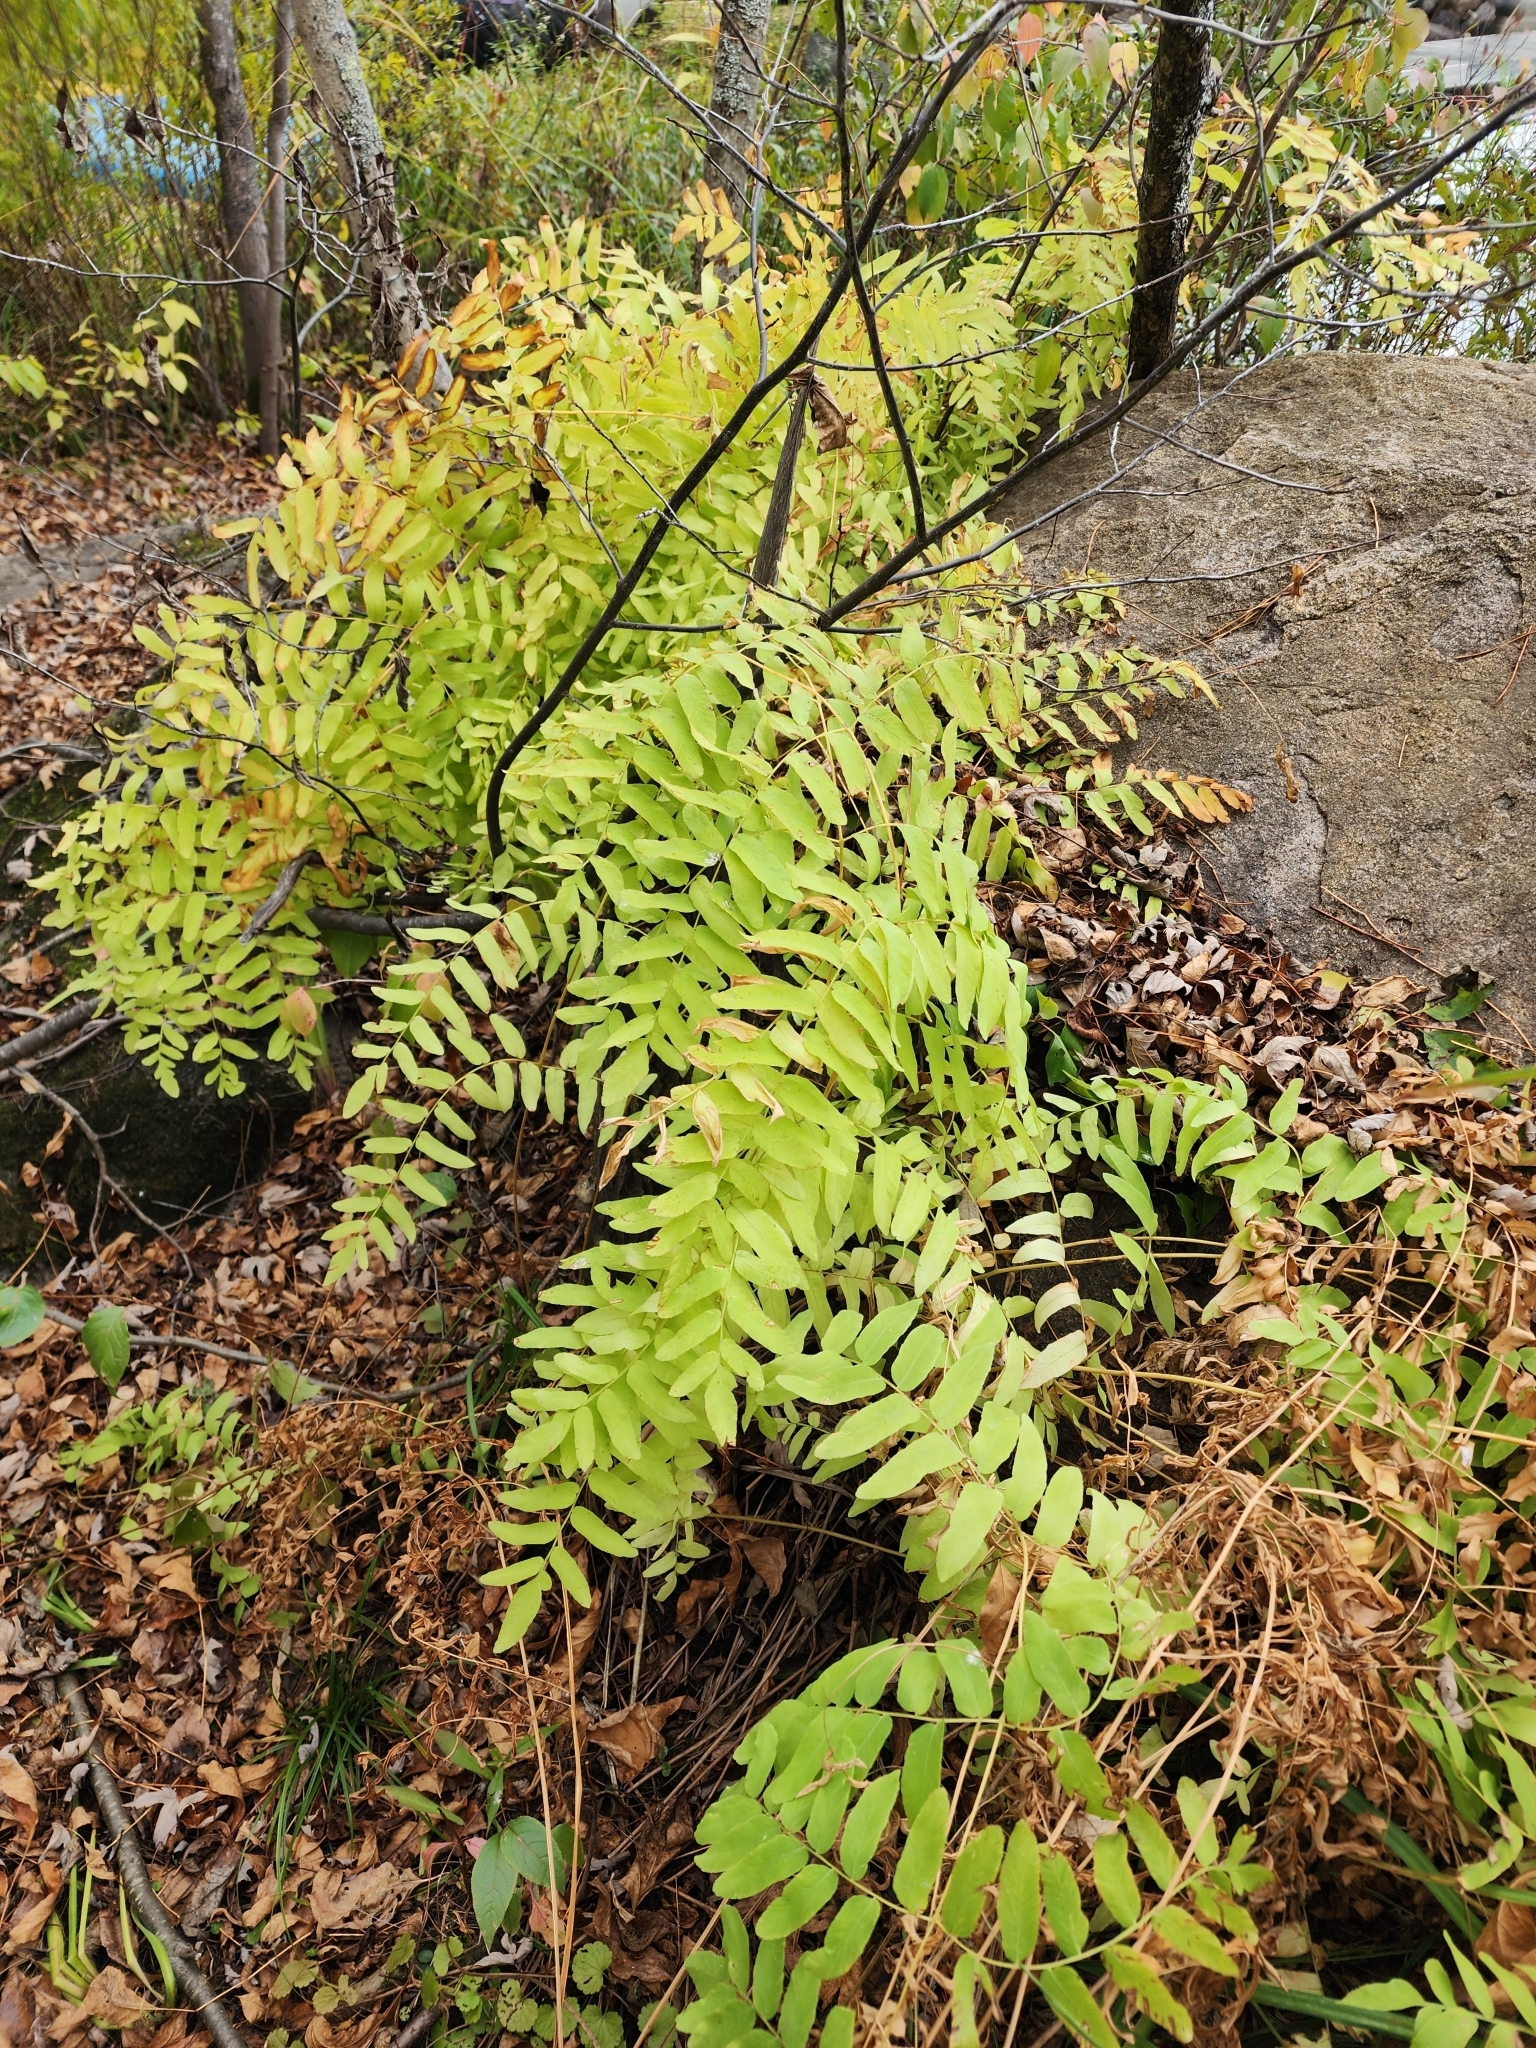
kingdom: Plantae
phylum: Tracheophyta
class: Polypodiopsida
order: Osmundales
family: Osmundaceae
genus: Osmunda
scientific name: Osmunda spectabilis
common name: American royal fern
